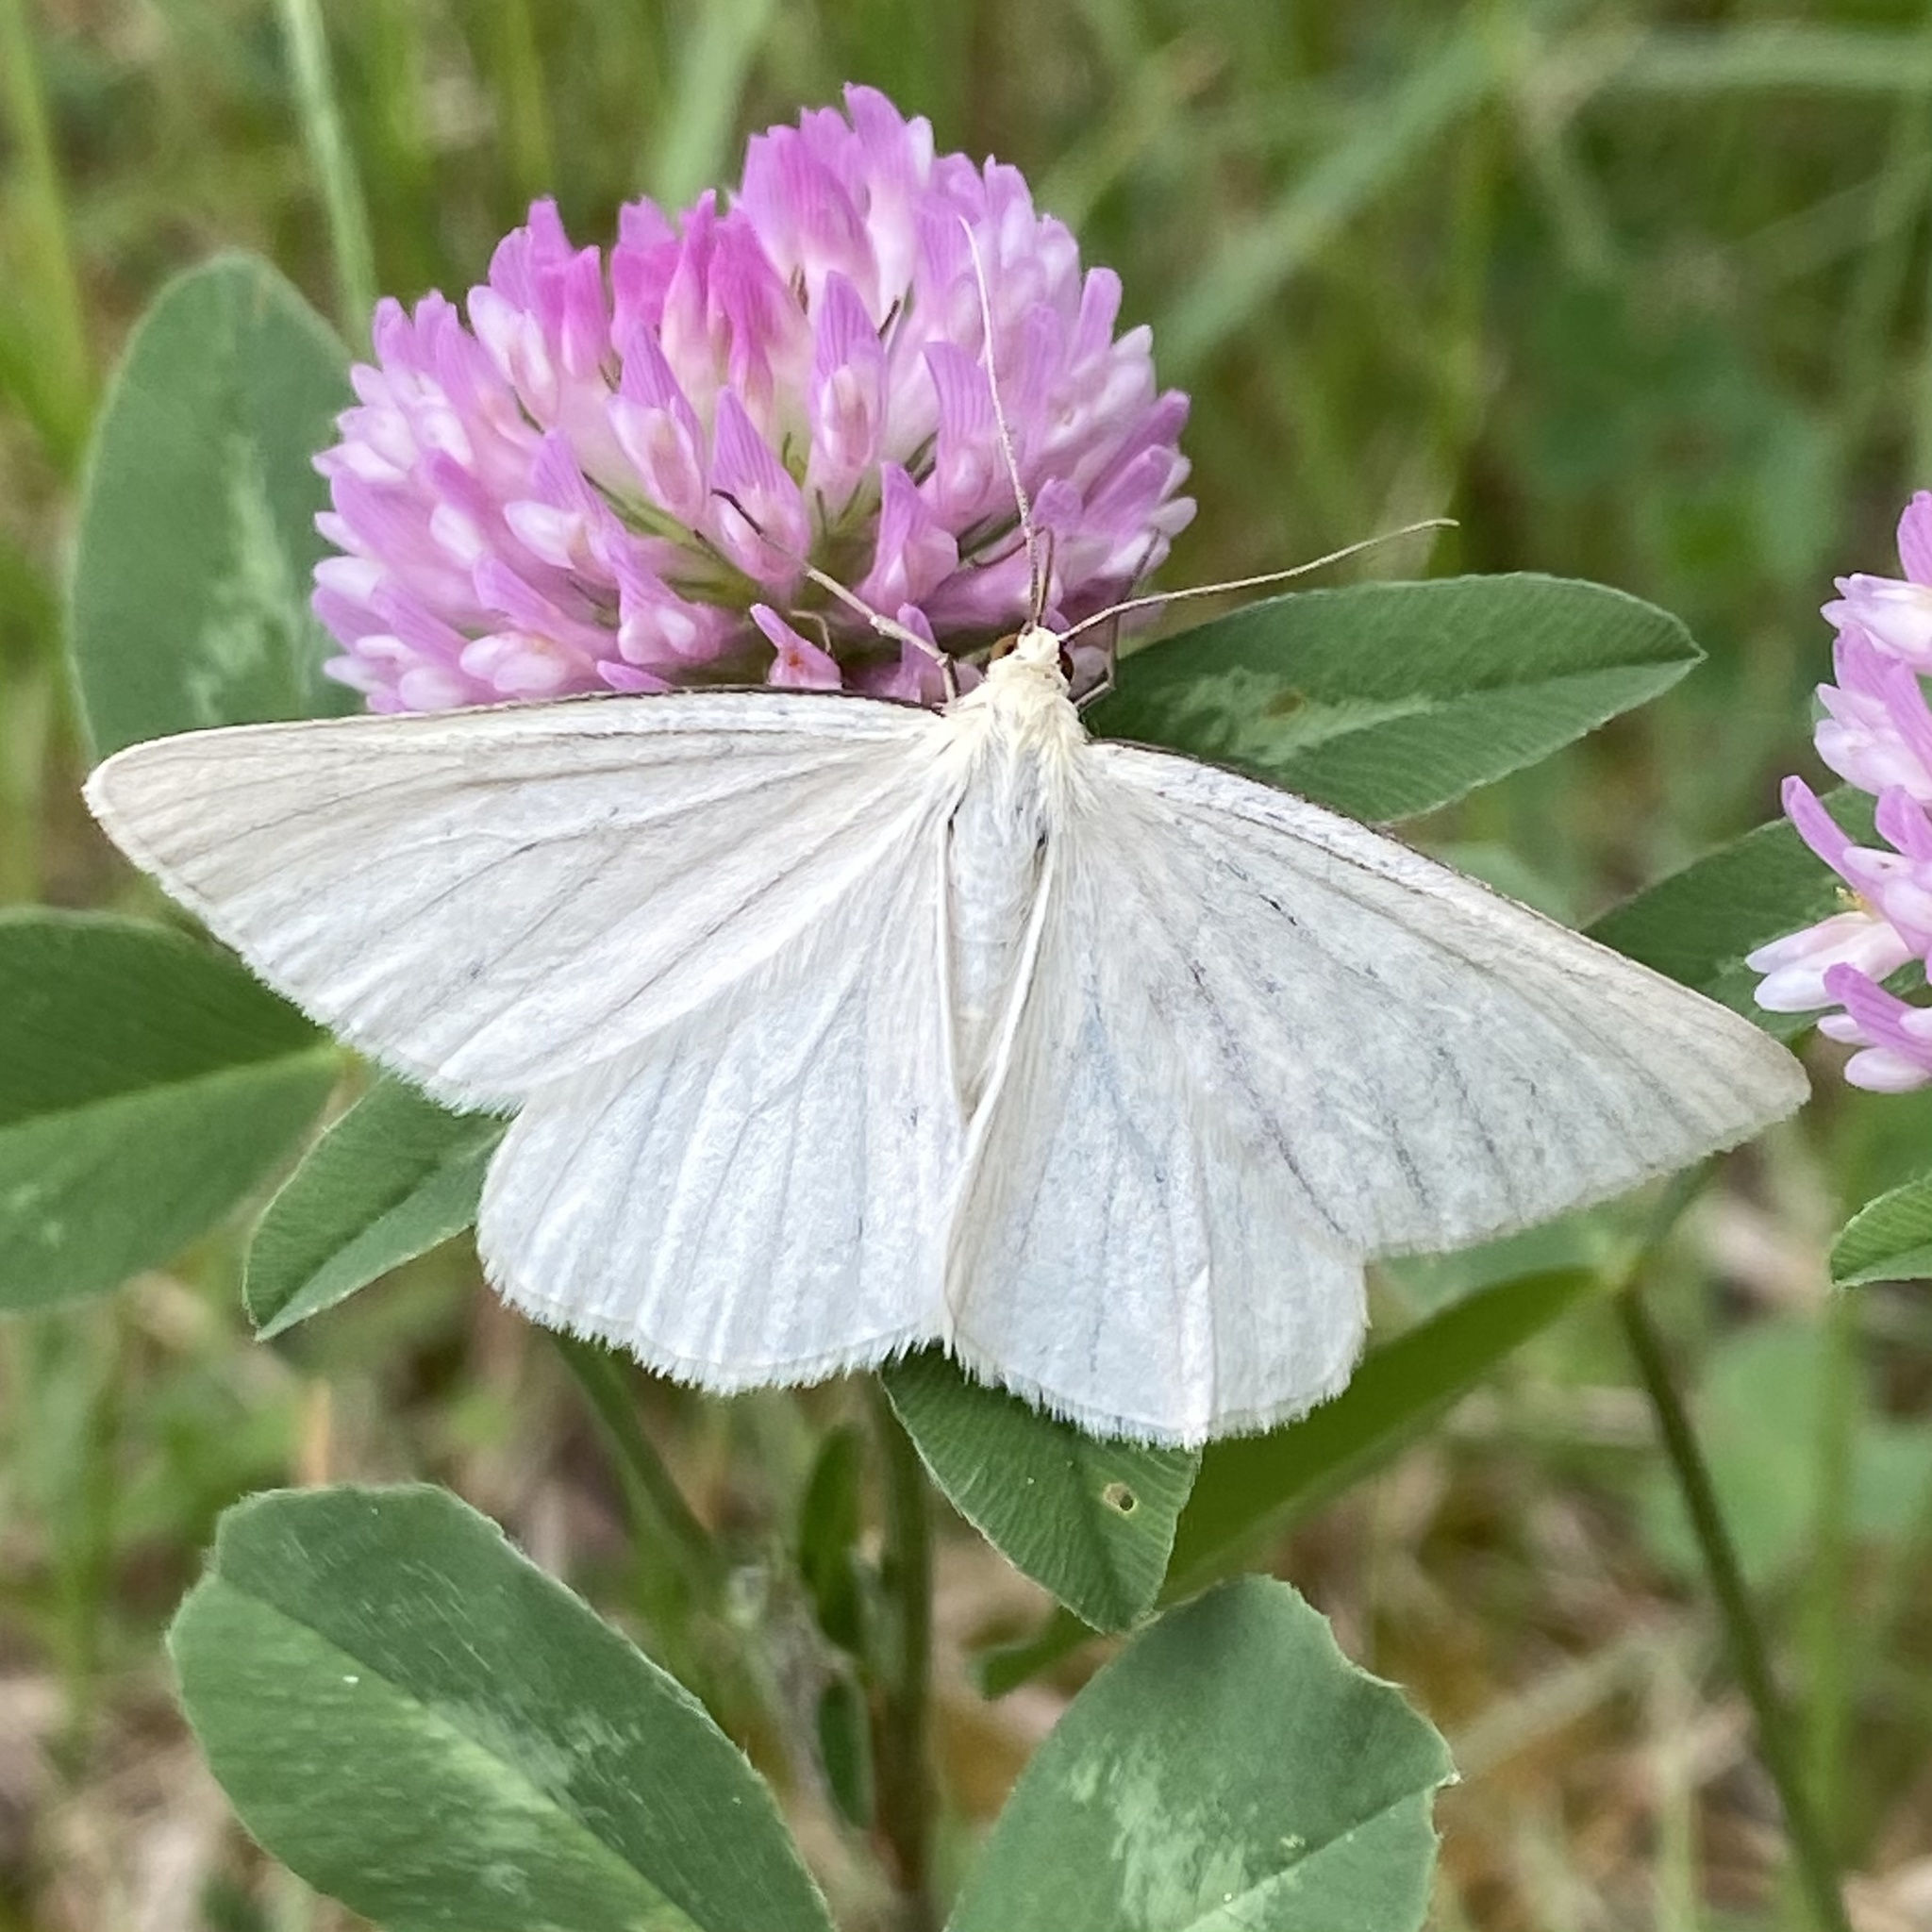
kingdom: Animalia
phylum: Arthropoda
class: Insecta
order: Lepidoptera
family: Geometridae
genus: Siona
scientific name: Siona lineata
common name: Black-veined moth
